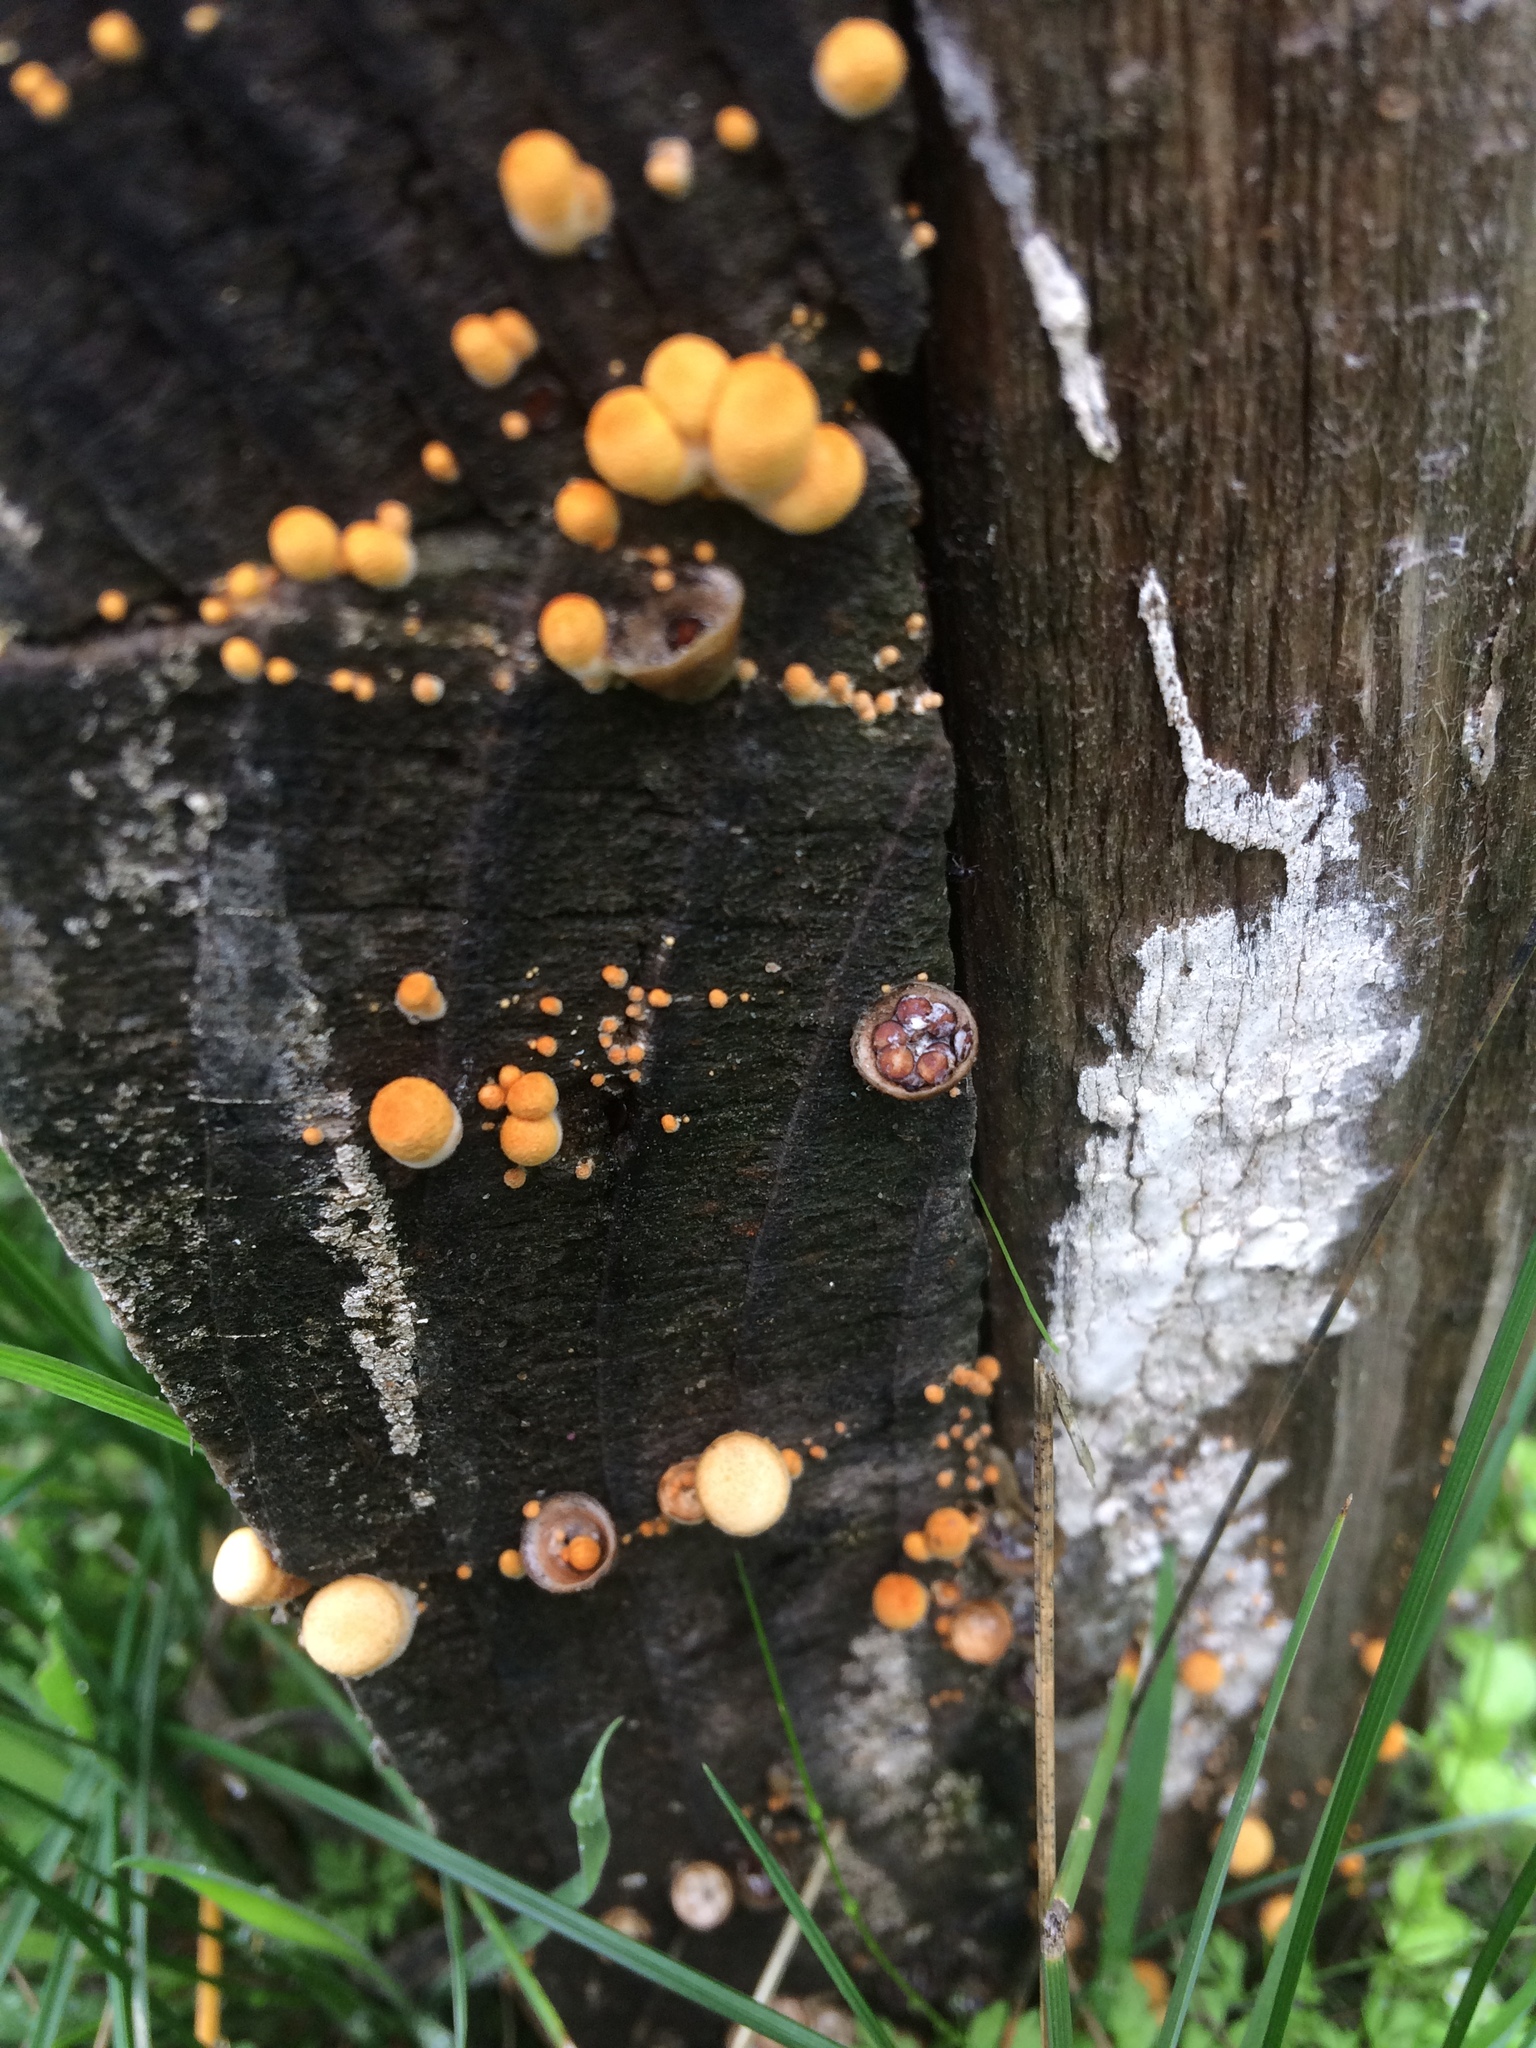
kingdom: Fungi
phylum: Basidiomycota
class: Agaricomycetes
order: Agaricales
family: Agaricaceae
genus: Nidula
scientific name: Nidula niveotomentosa
